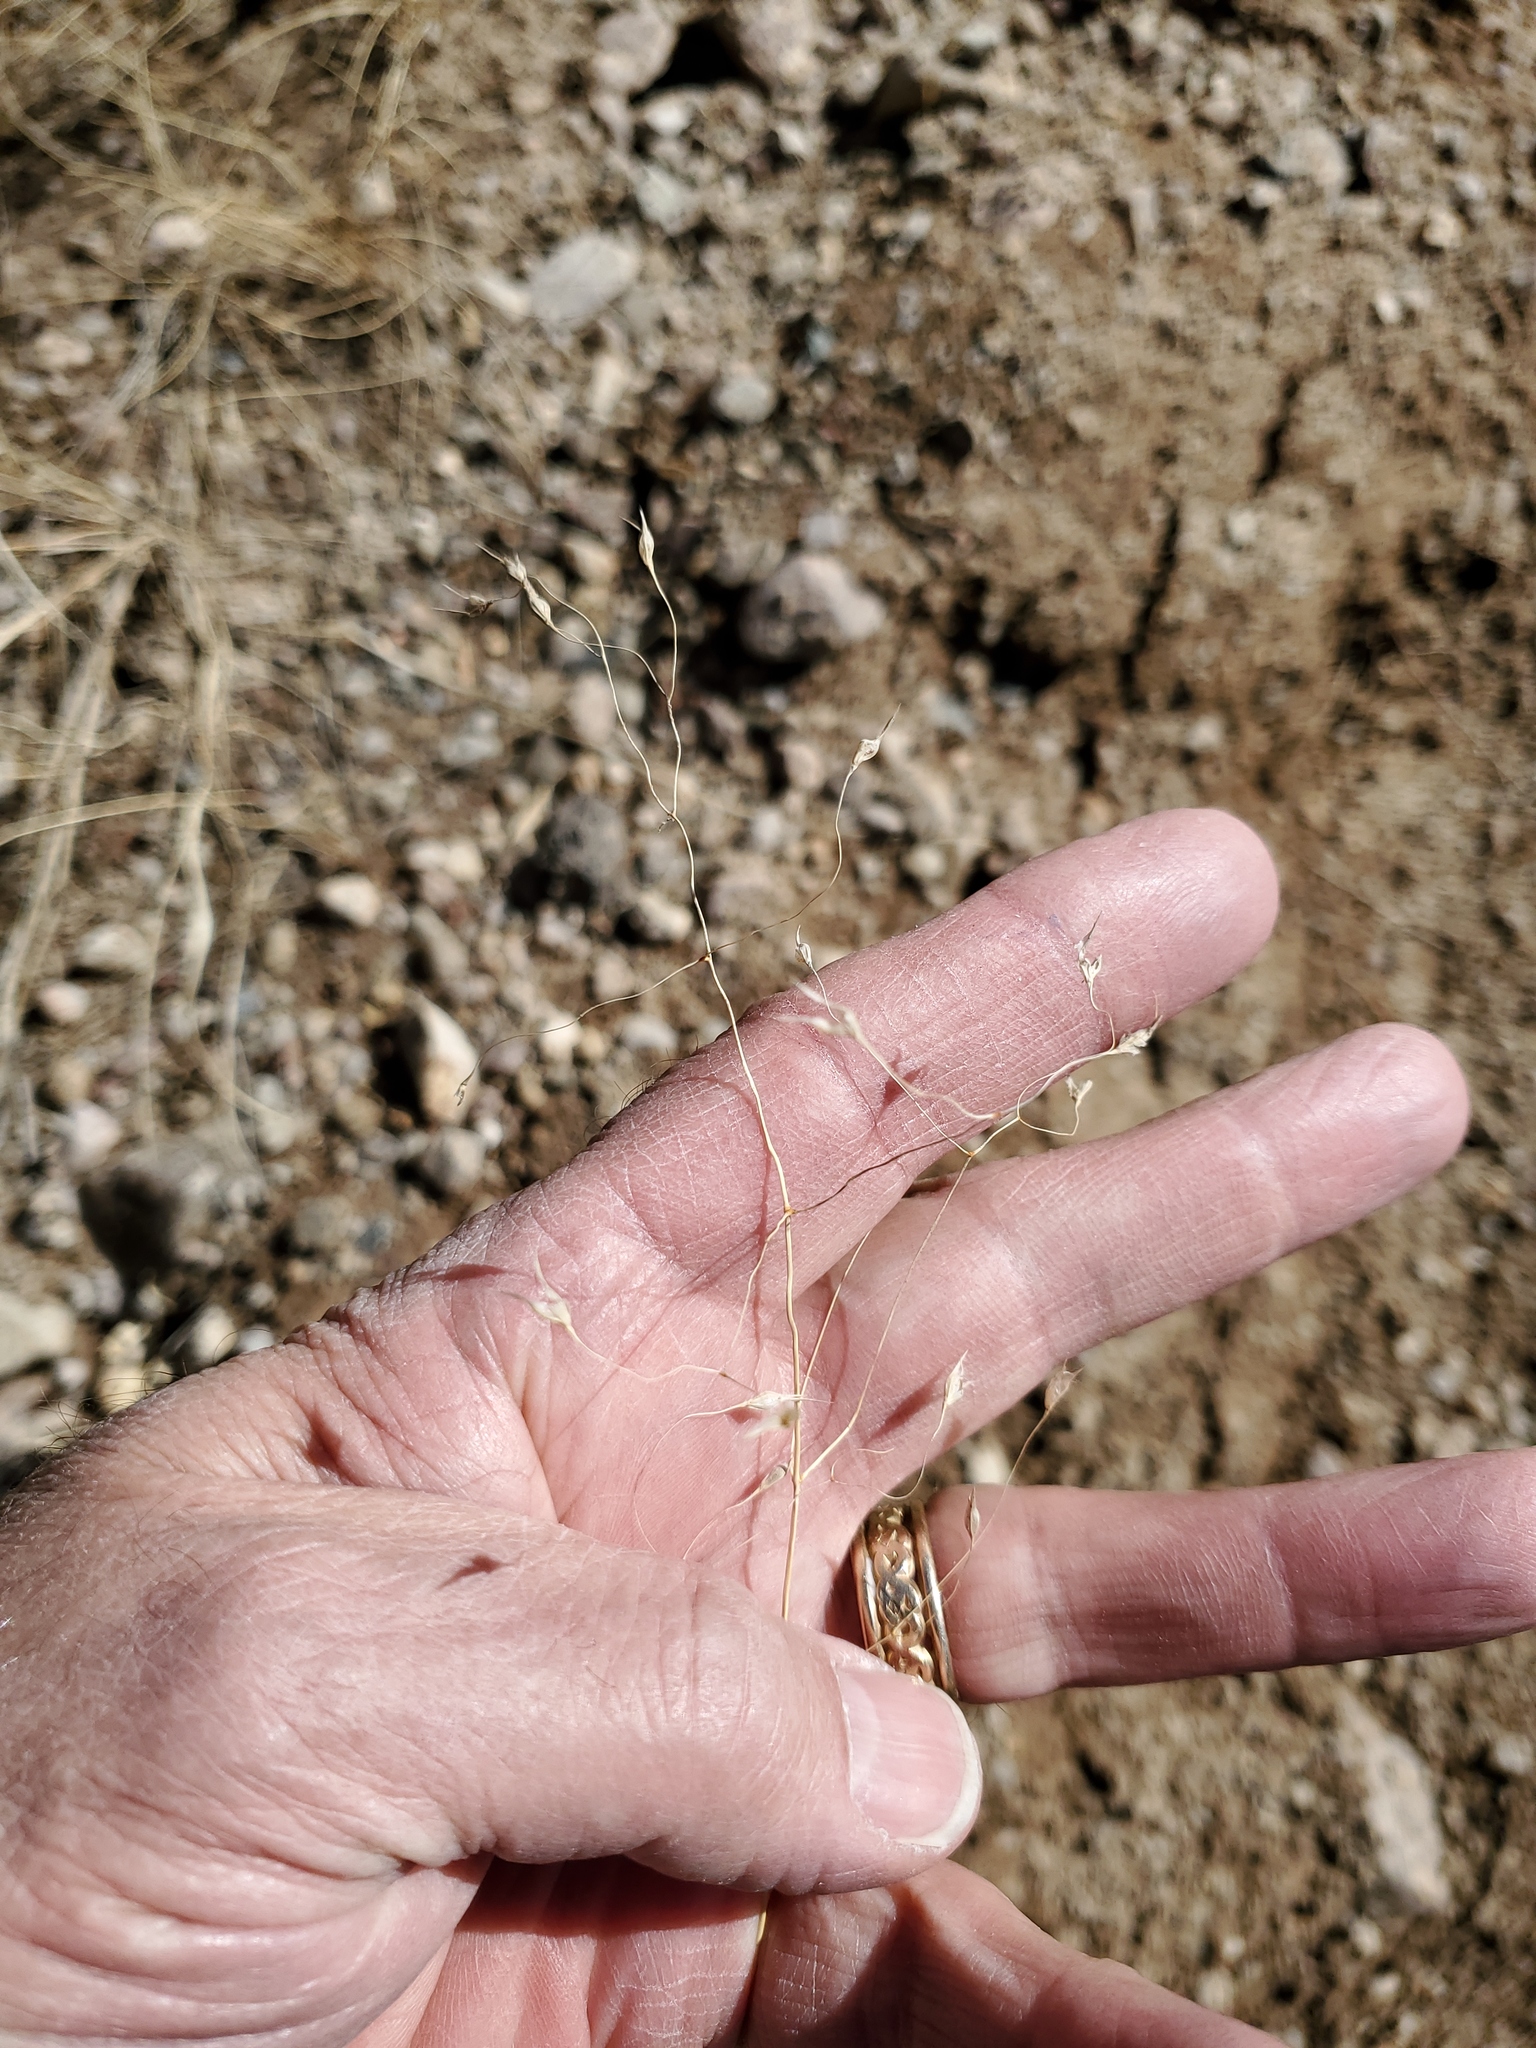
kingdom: Plantae
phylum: Tracheophyta
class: Liliopsida
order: Poales
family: Poaceae
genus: Eriocoma
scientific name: Eriocoma hymenoides
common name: Indian mountain ricegrass
